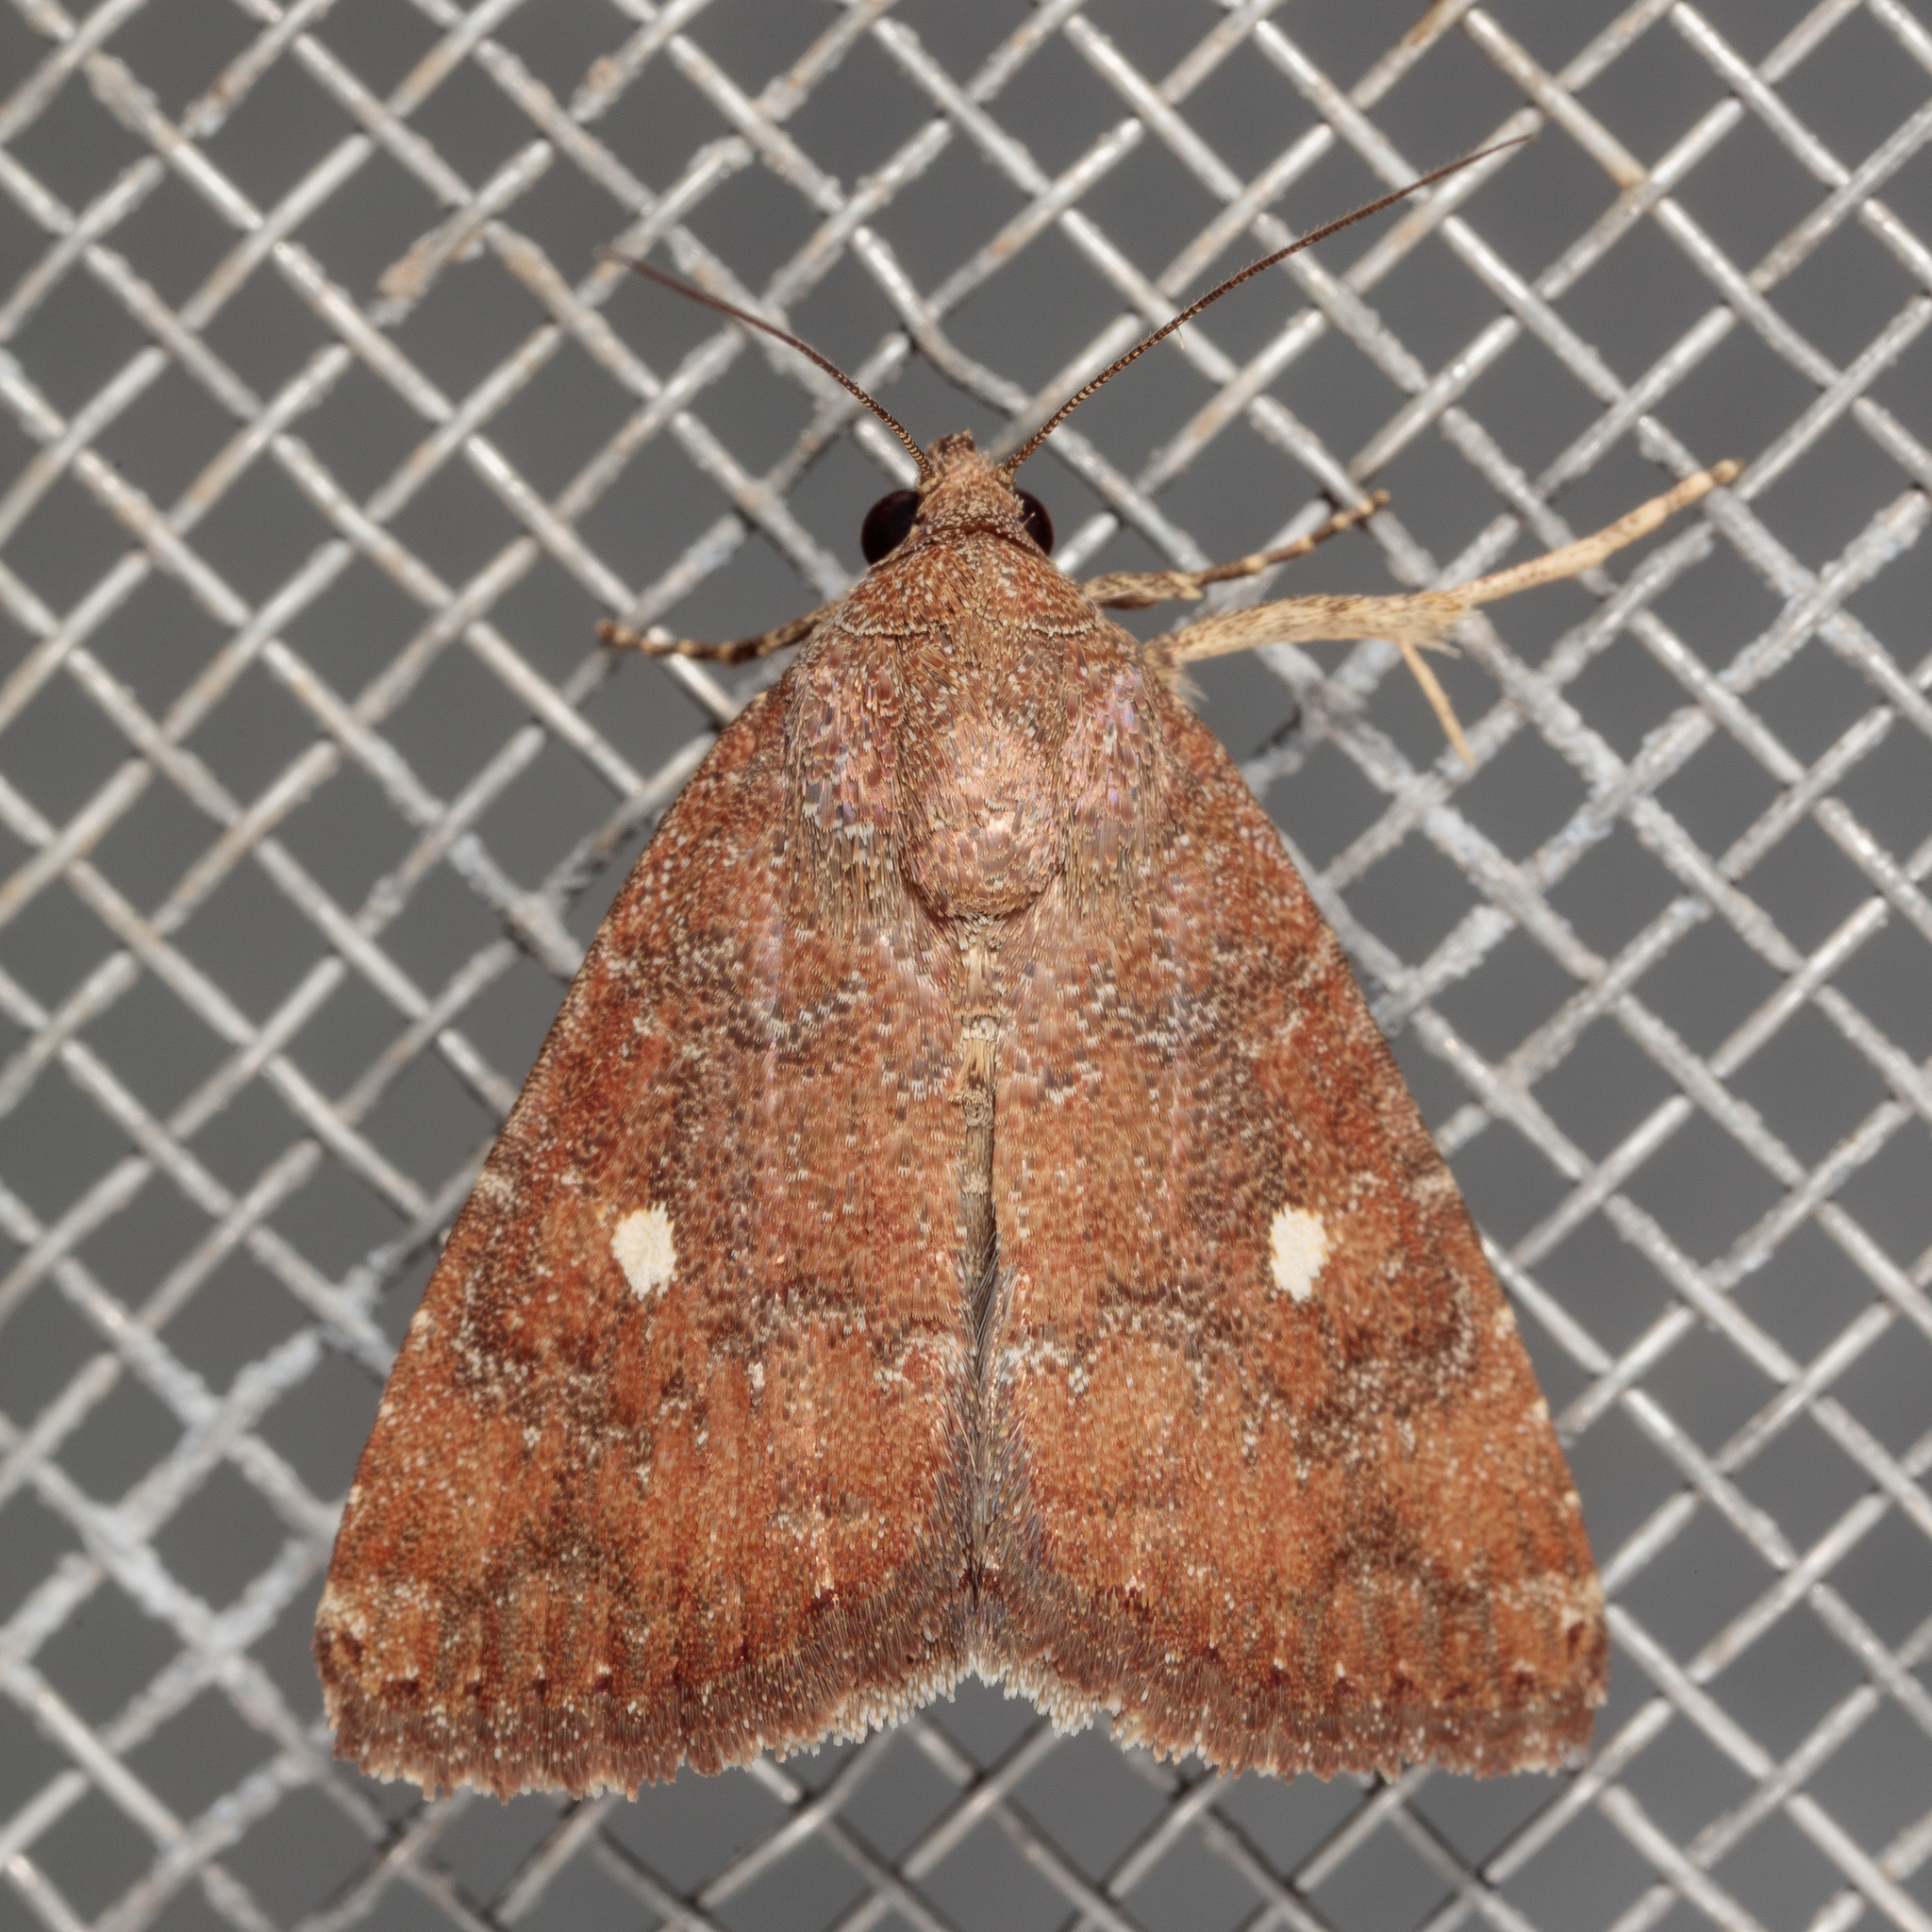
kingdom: Animalia
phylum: Arthropoda
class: Insecta
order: Lepidoptera
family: Noctuidae
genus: Amyna
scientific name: Amyna stricta
